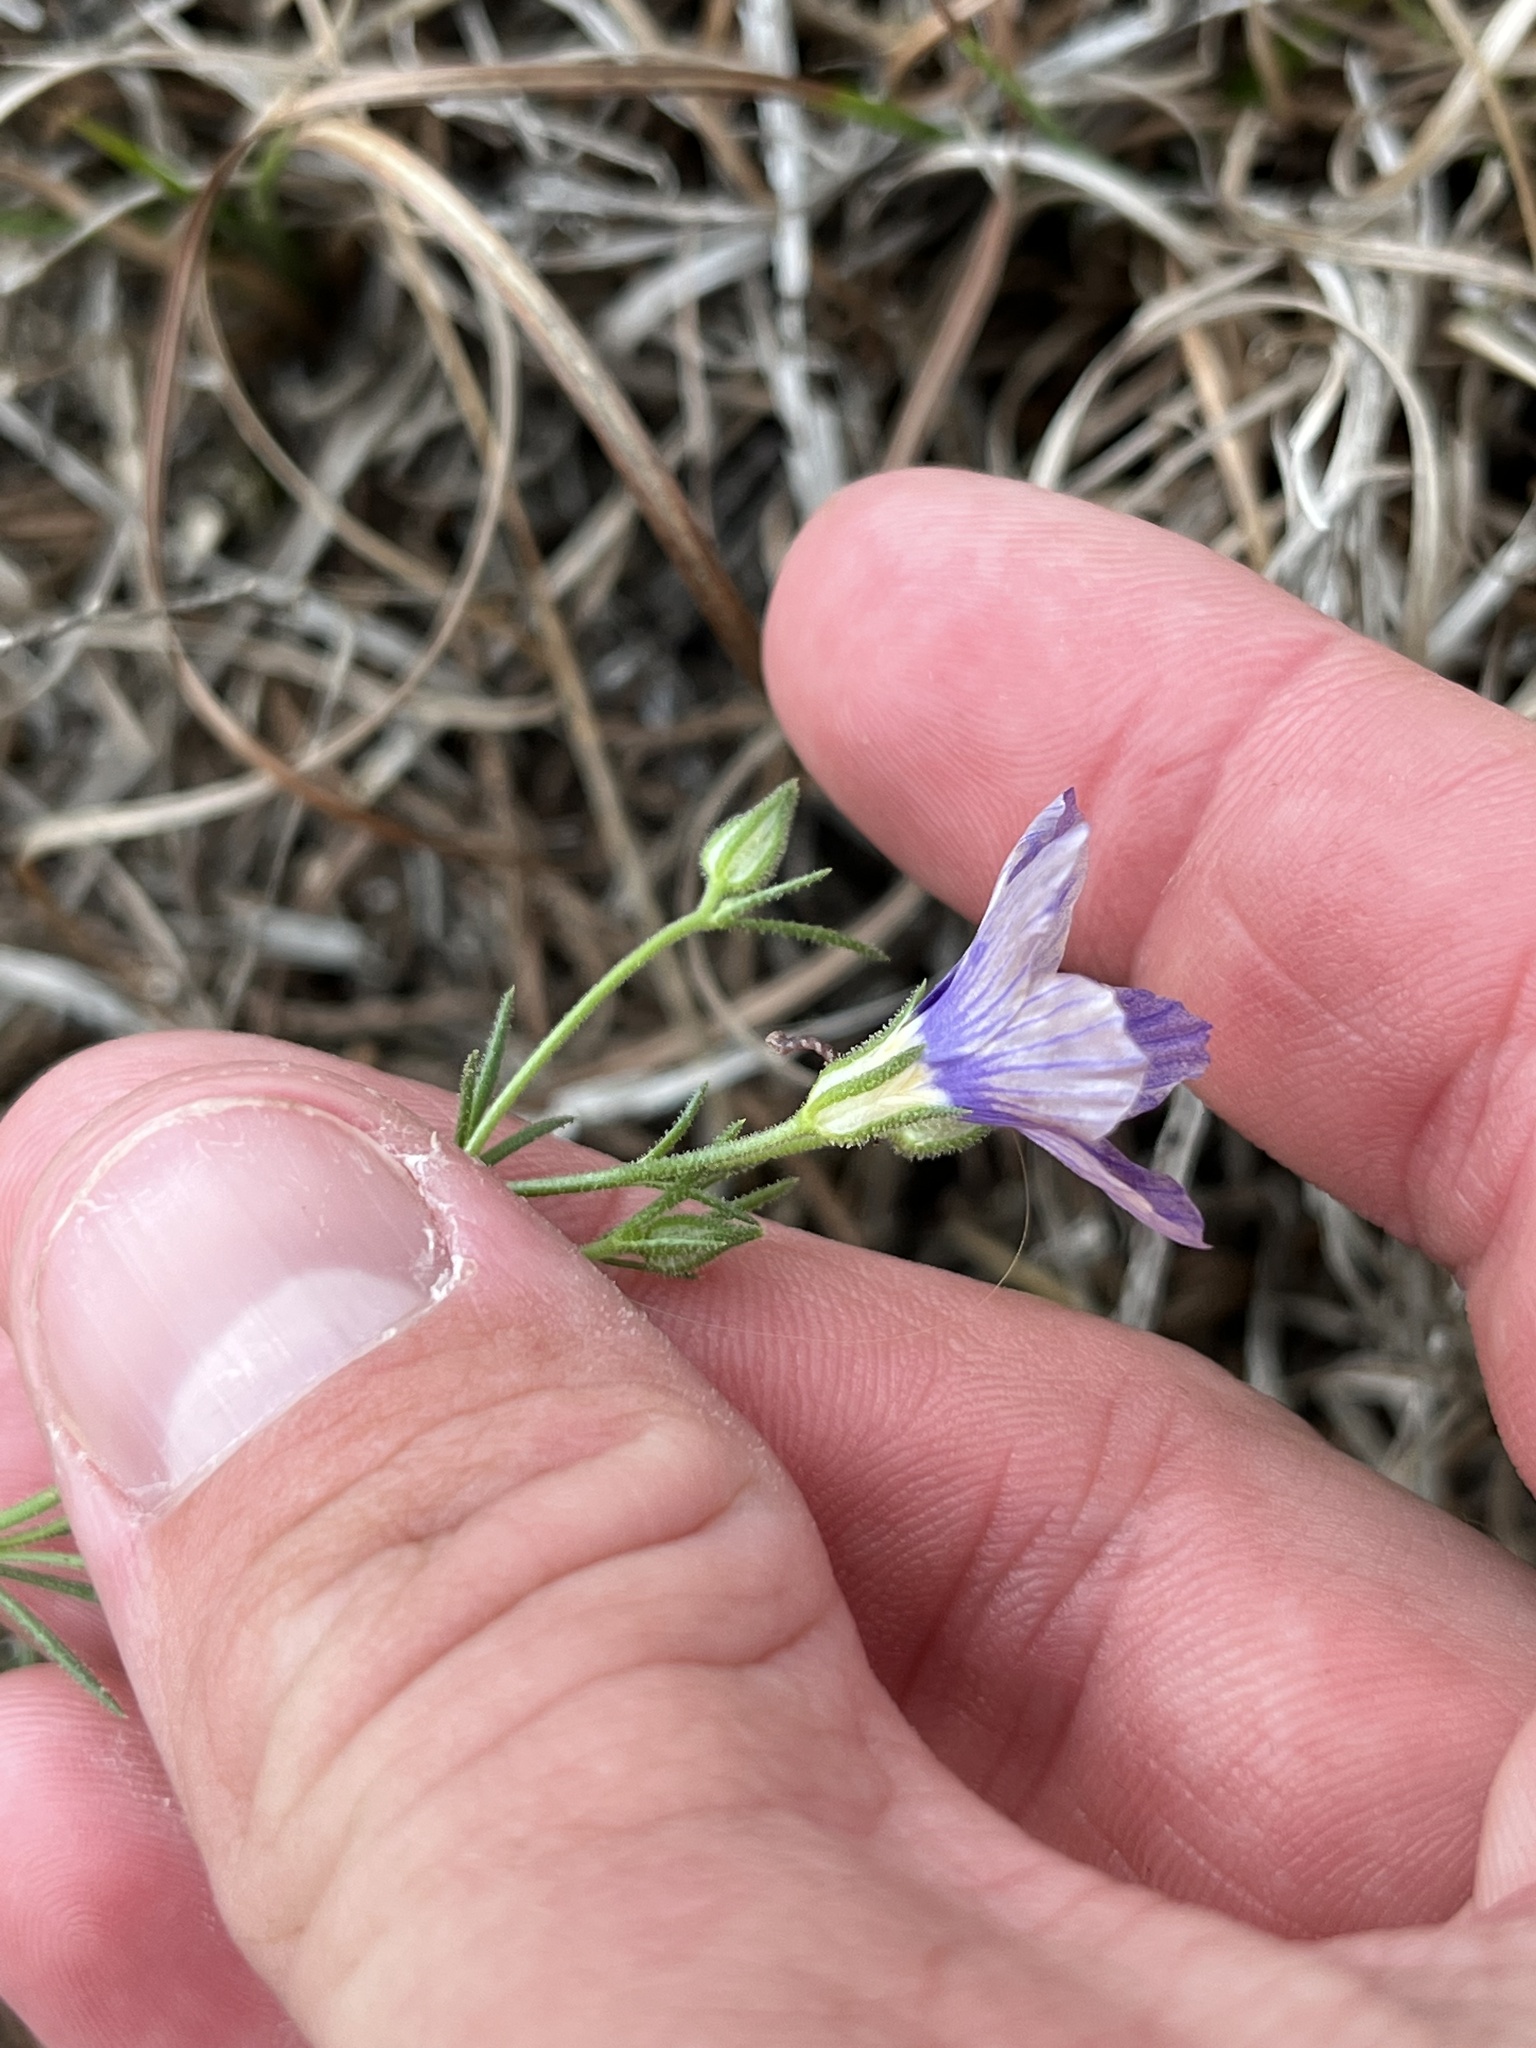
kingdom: Plantae
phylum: Tracheophyta
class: Magnoliopsida
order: Ericales
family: Polemoniaceae
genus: Giliastrum
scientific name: Giliastrum rigidulum
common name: Bluebowls
